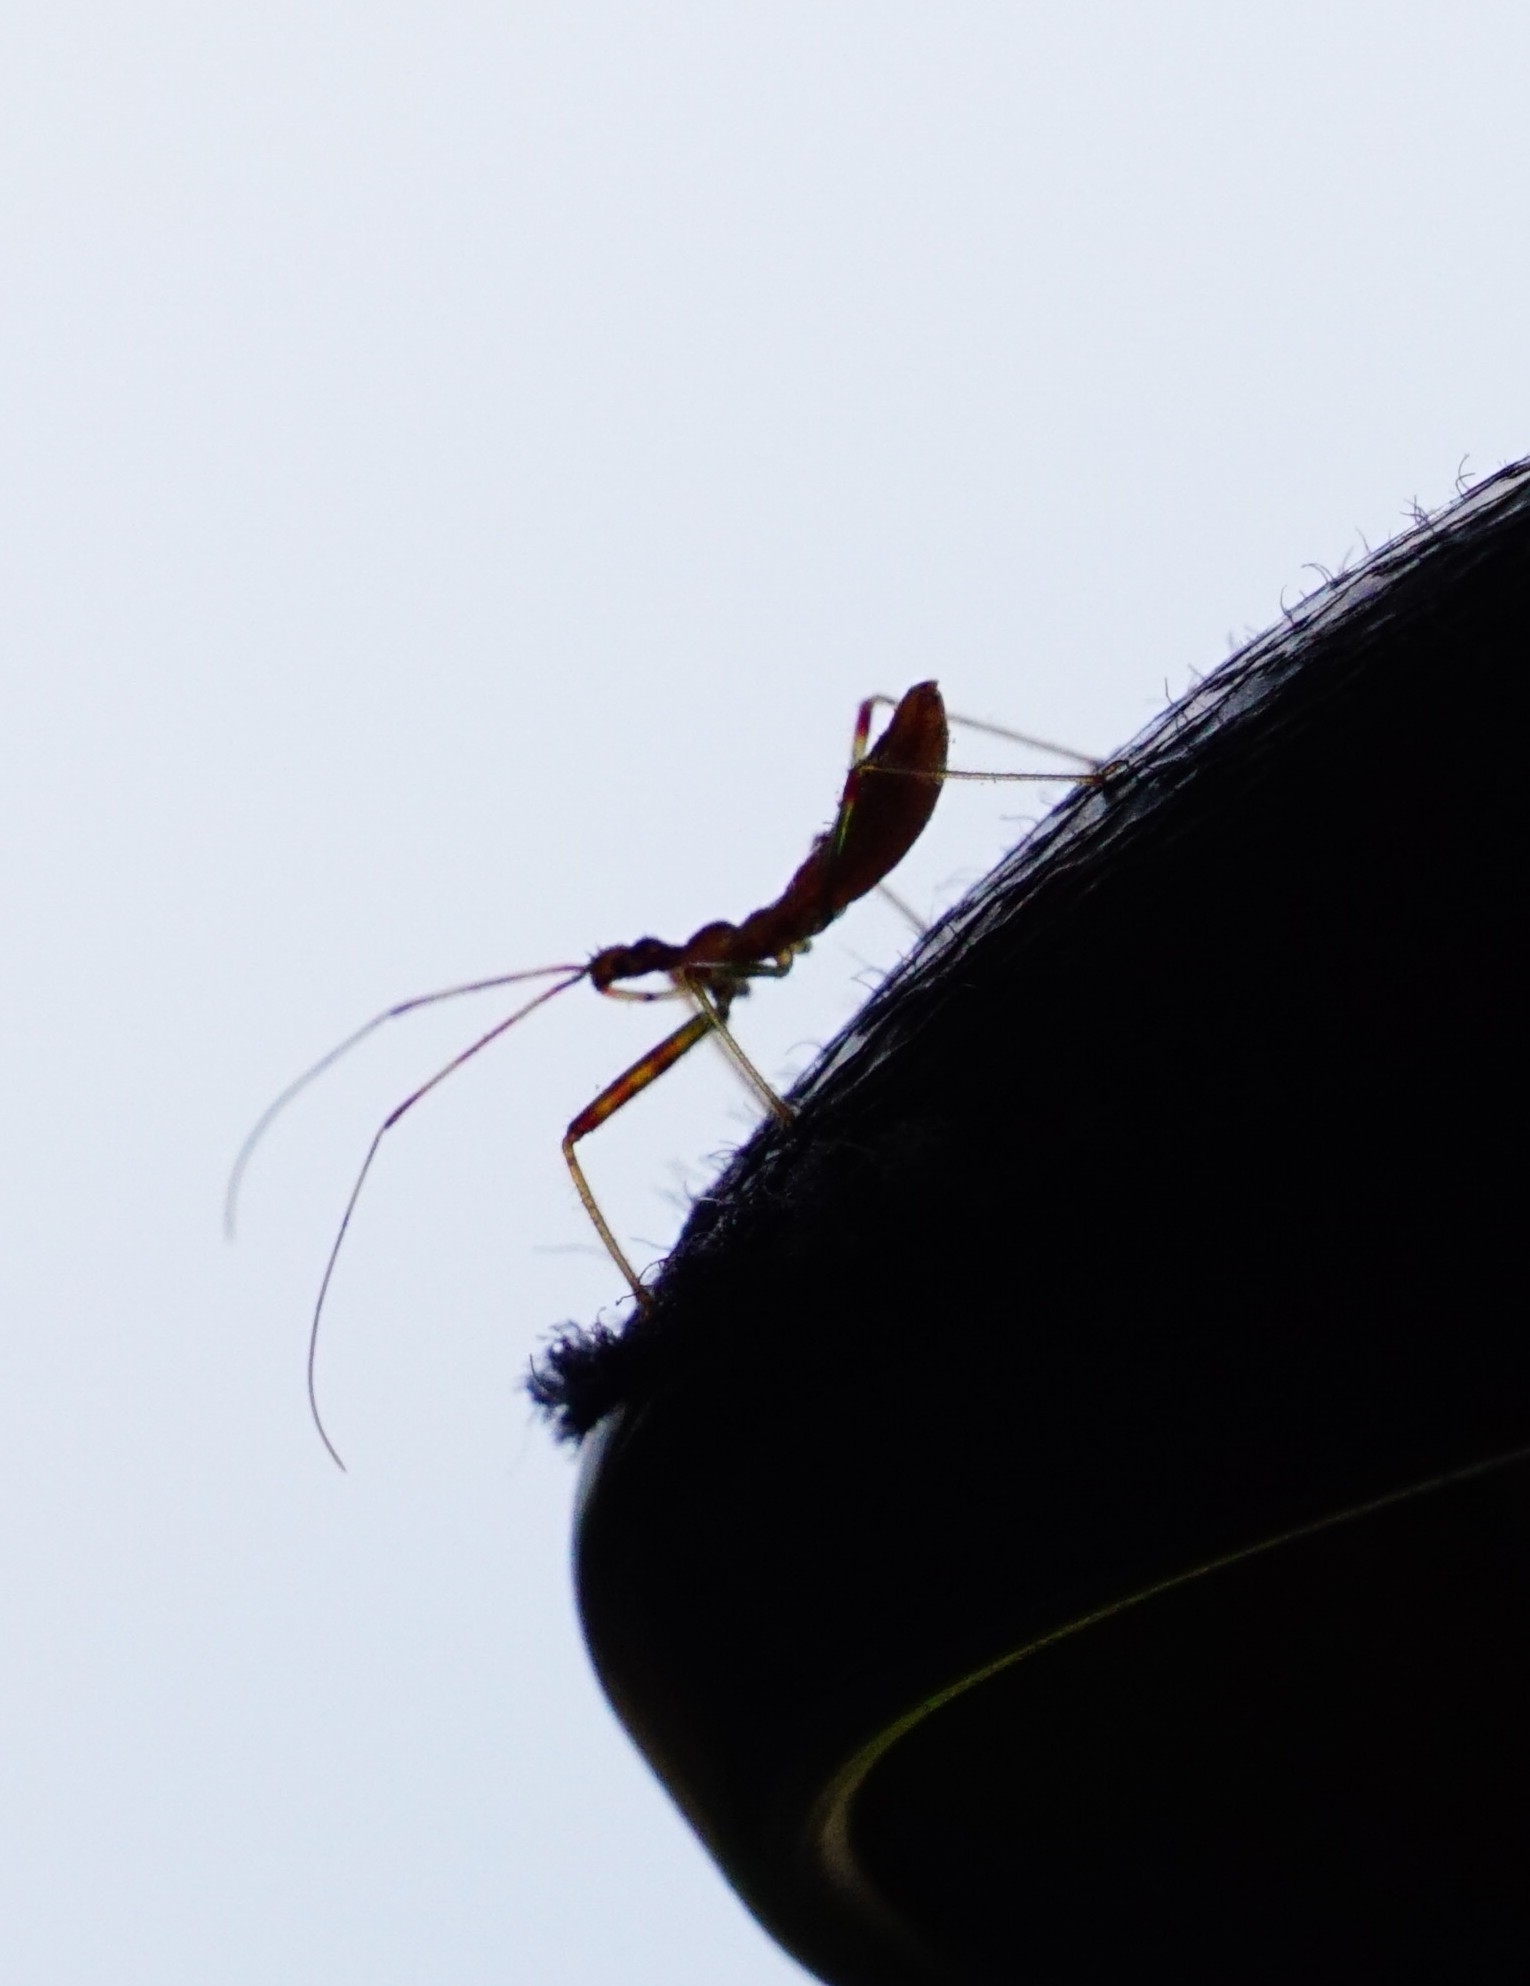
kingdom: Animalia
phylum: Arthropoda
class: Insecta
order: Hemiptera
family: Reduviidae
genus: Nagusta
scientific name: Nagusta goedelii
